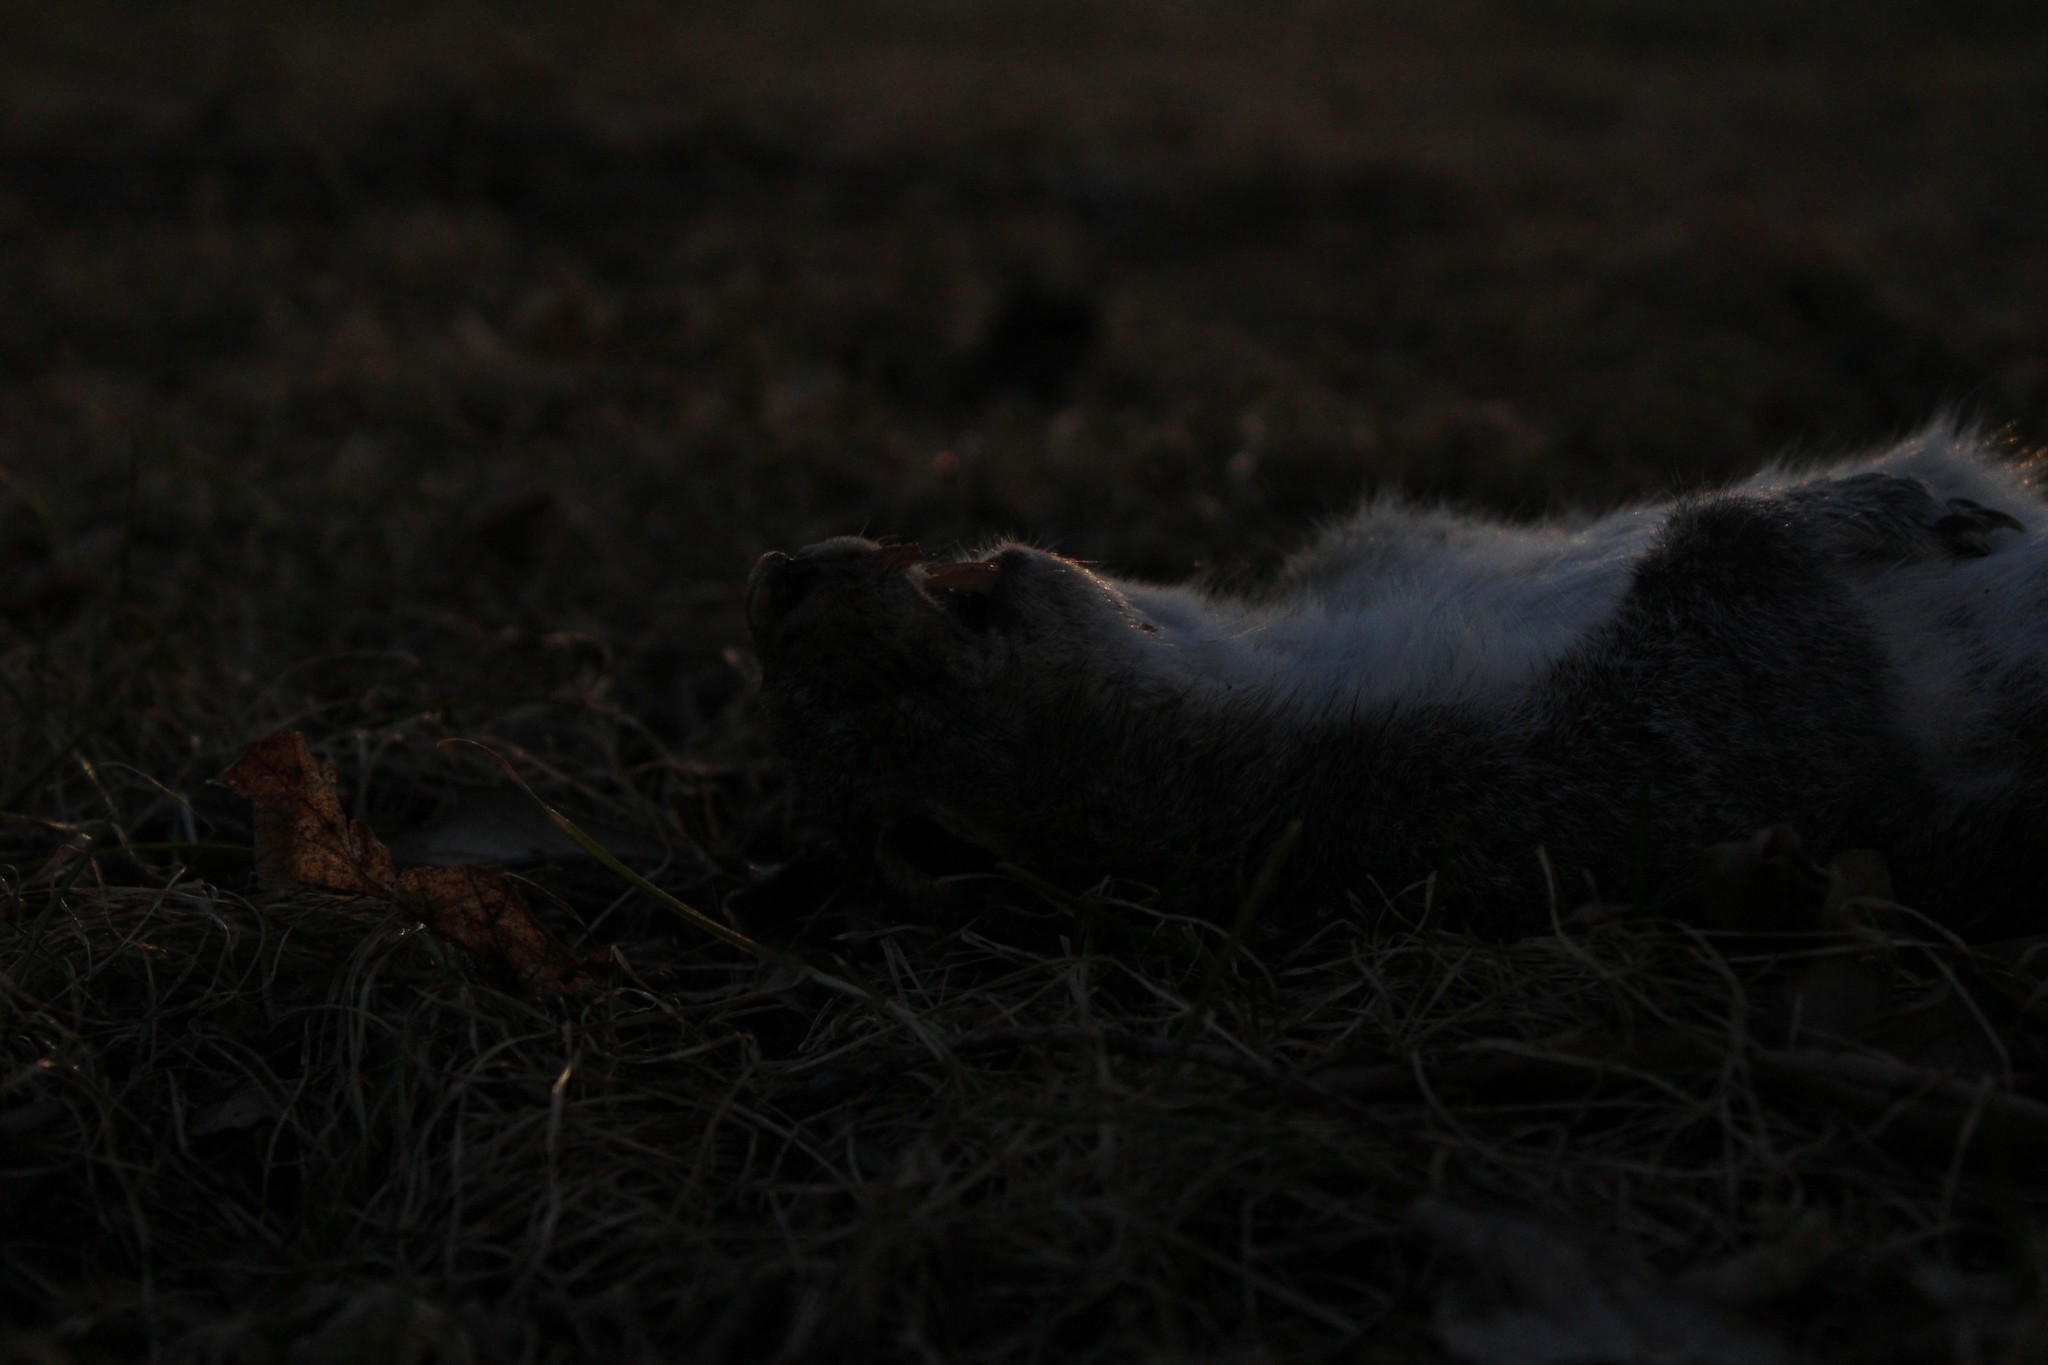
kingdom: Animalia
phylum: Chordata
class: Mammalia
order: Rodentia
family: Sciuridae
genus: Sciurus
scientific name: Sciurus carolinensis
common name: Eastern gray squirrel
